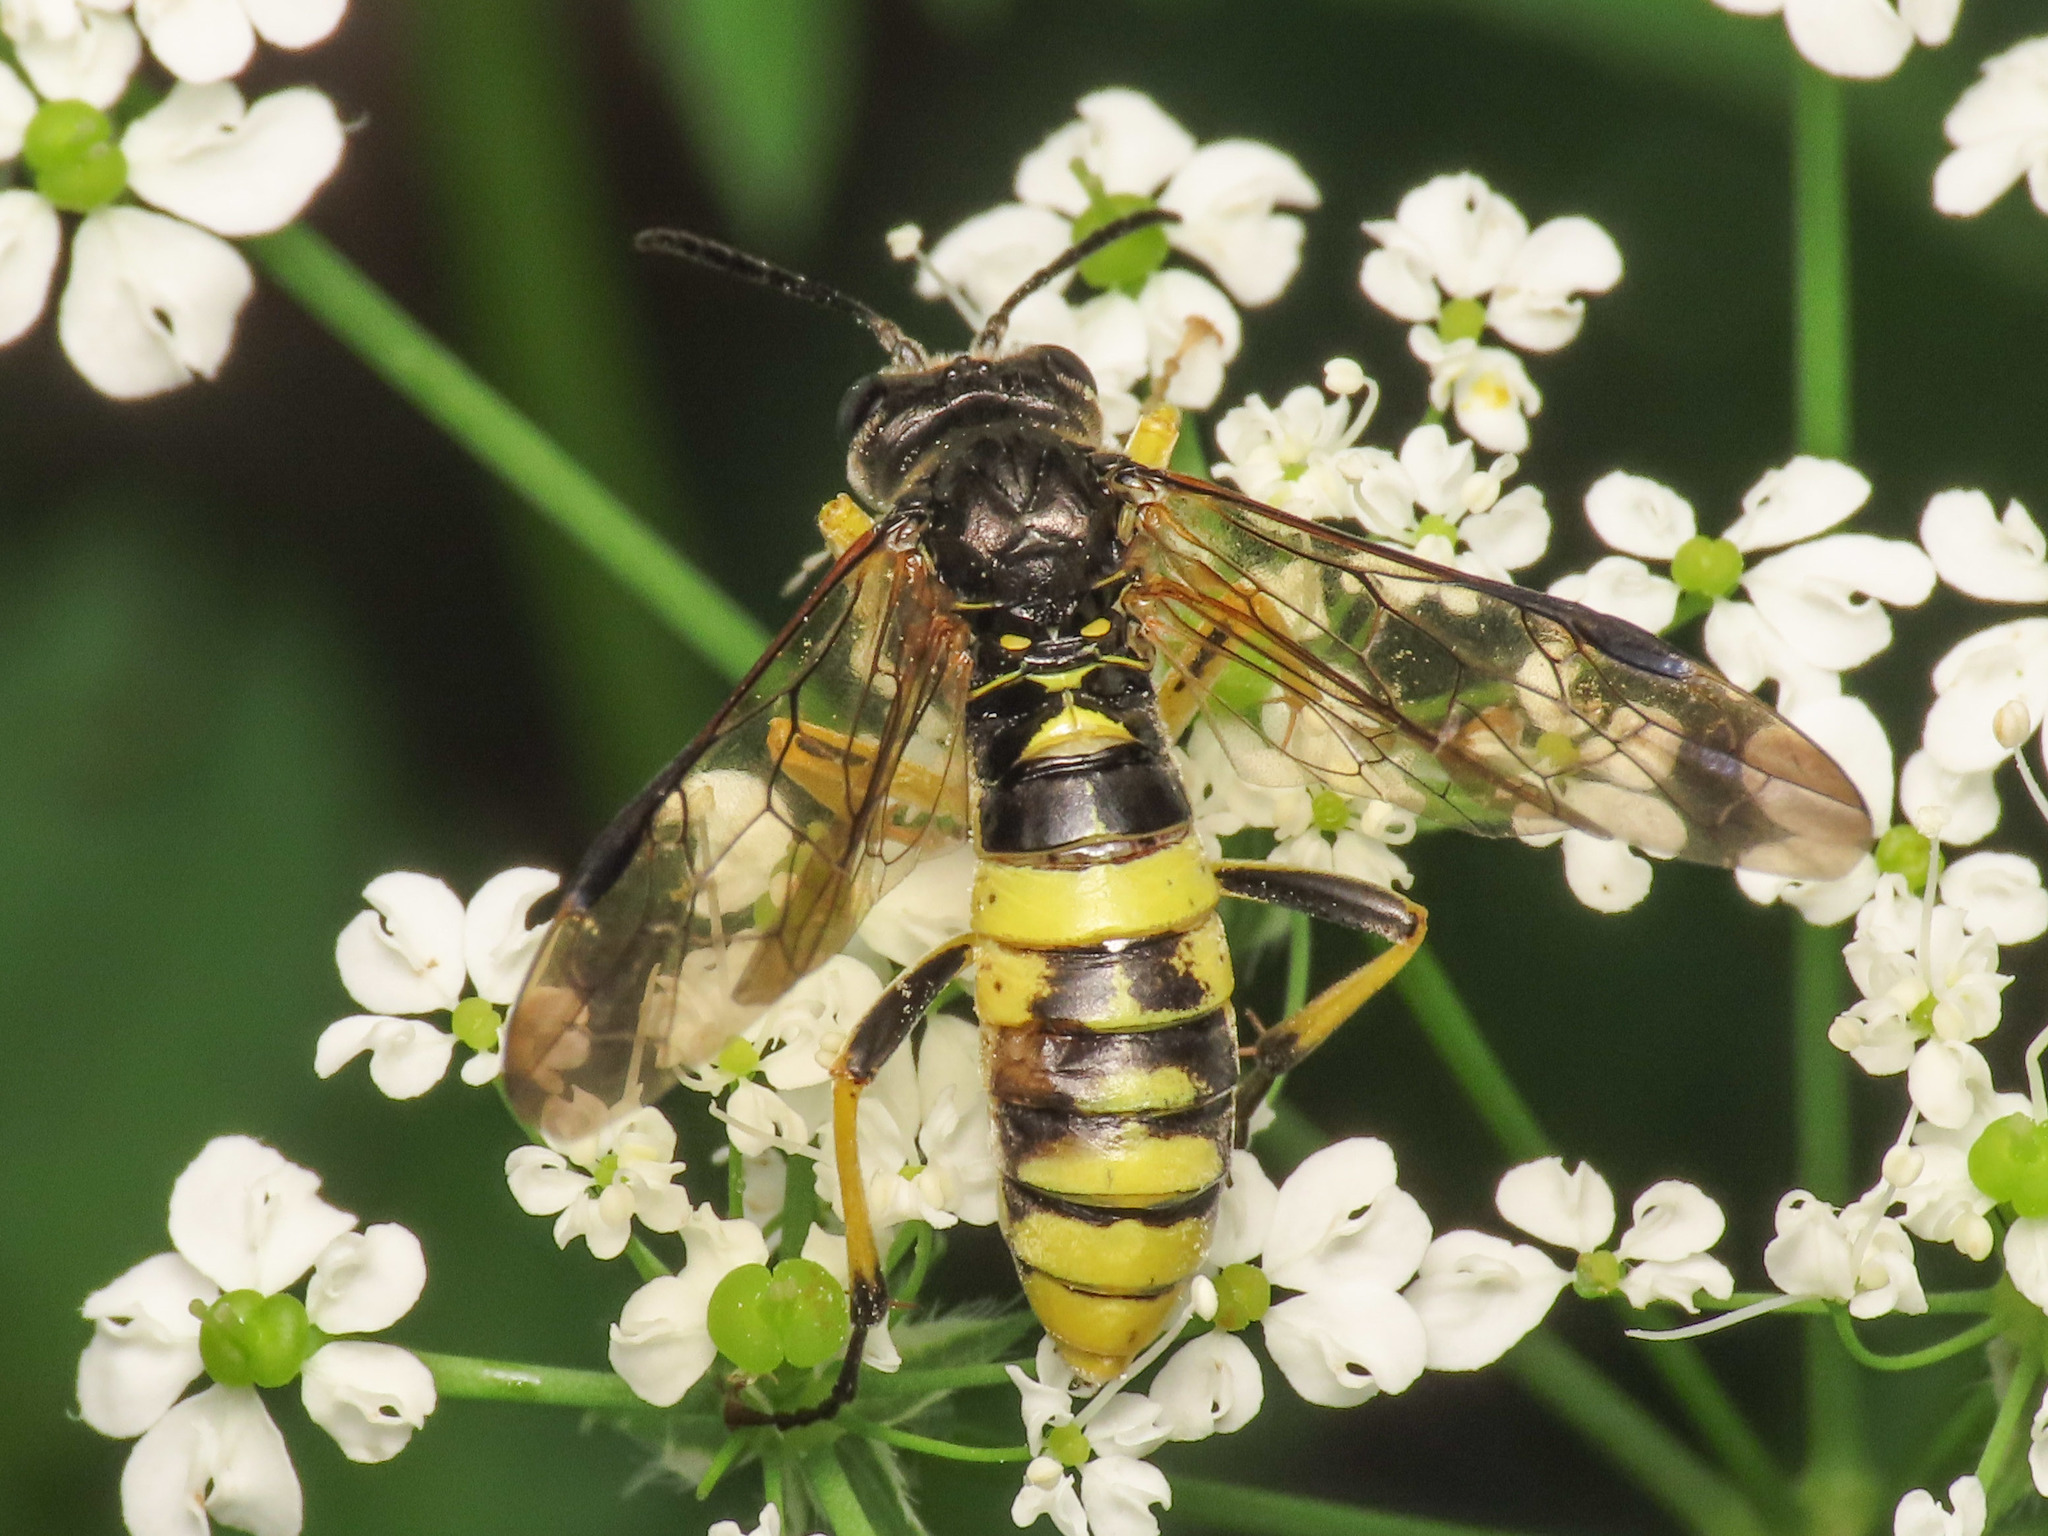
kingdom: Animalia
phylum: Arthropoda
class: Insecta
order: Hymenoptera
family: Tenthredinidae
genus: Tenthredo
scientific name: Tenthredo temula
